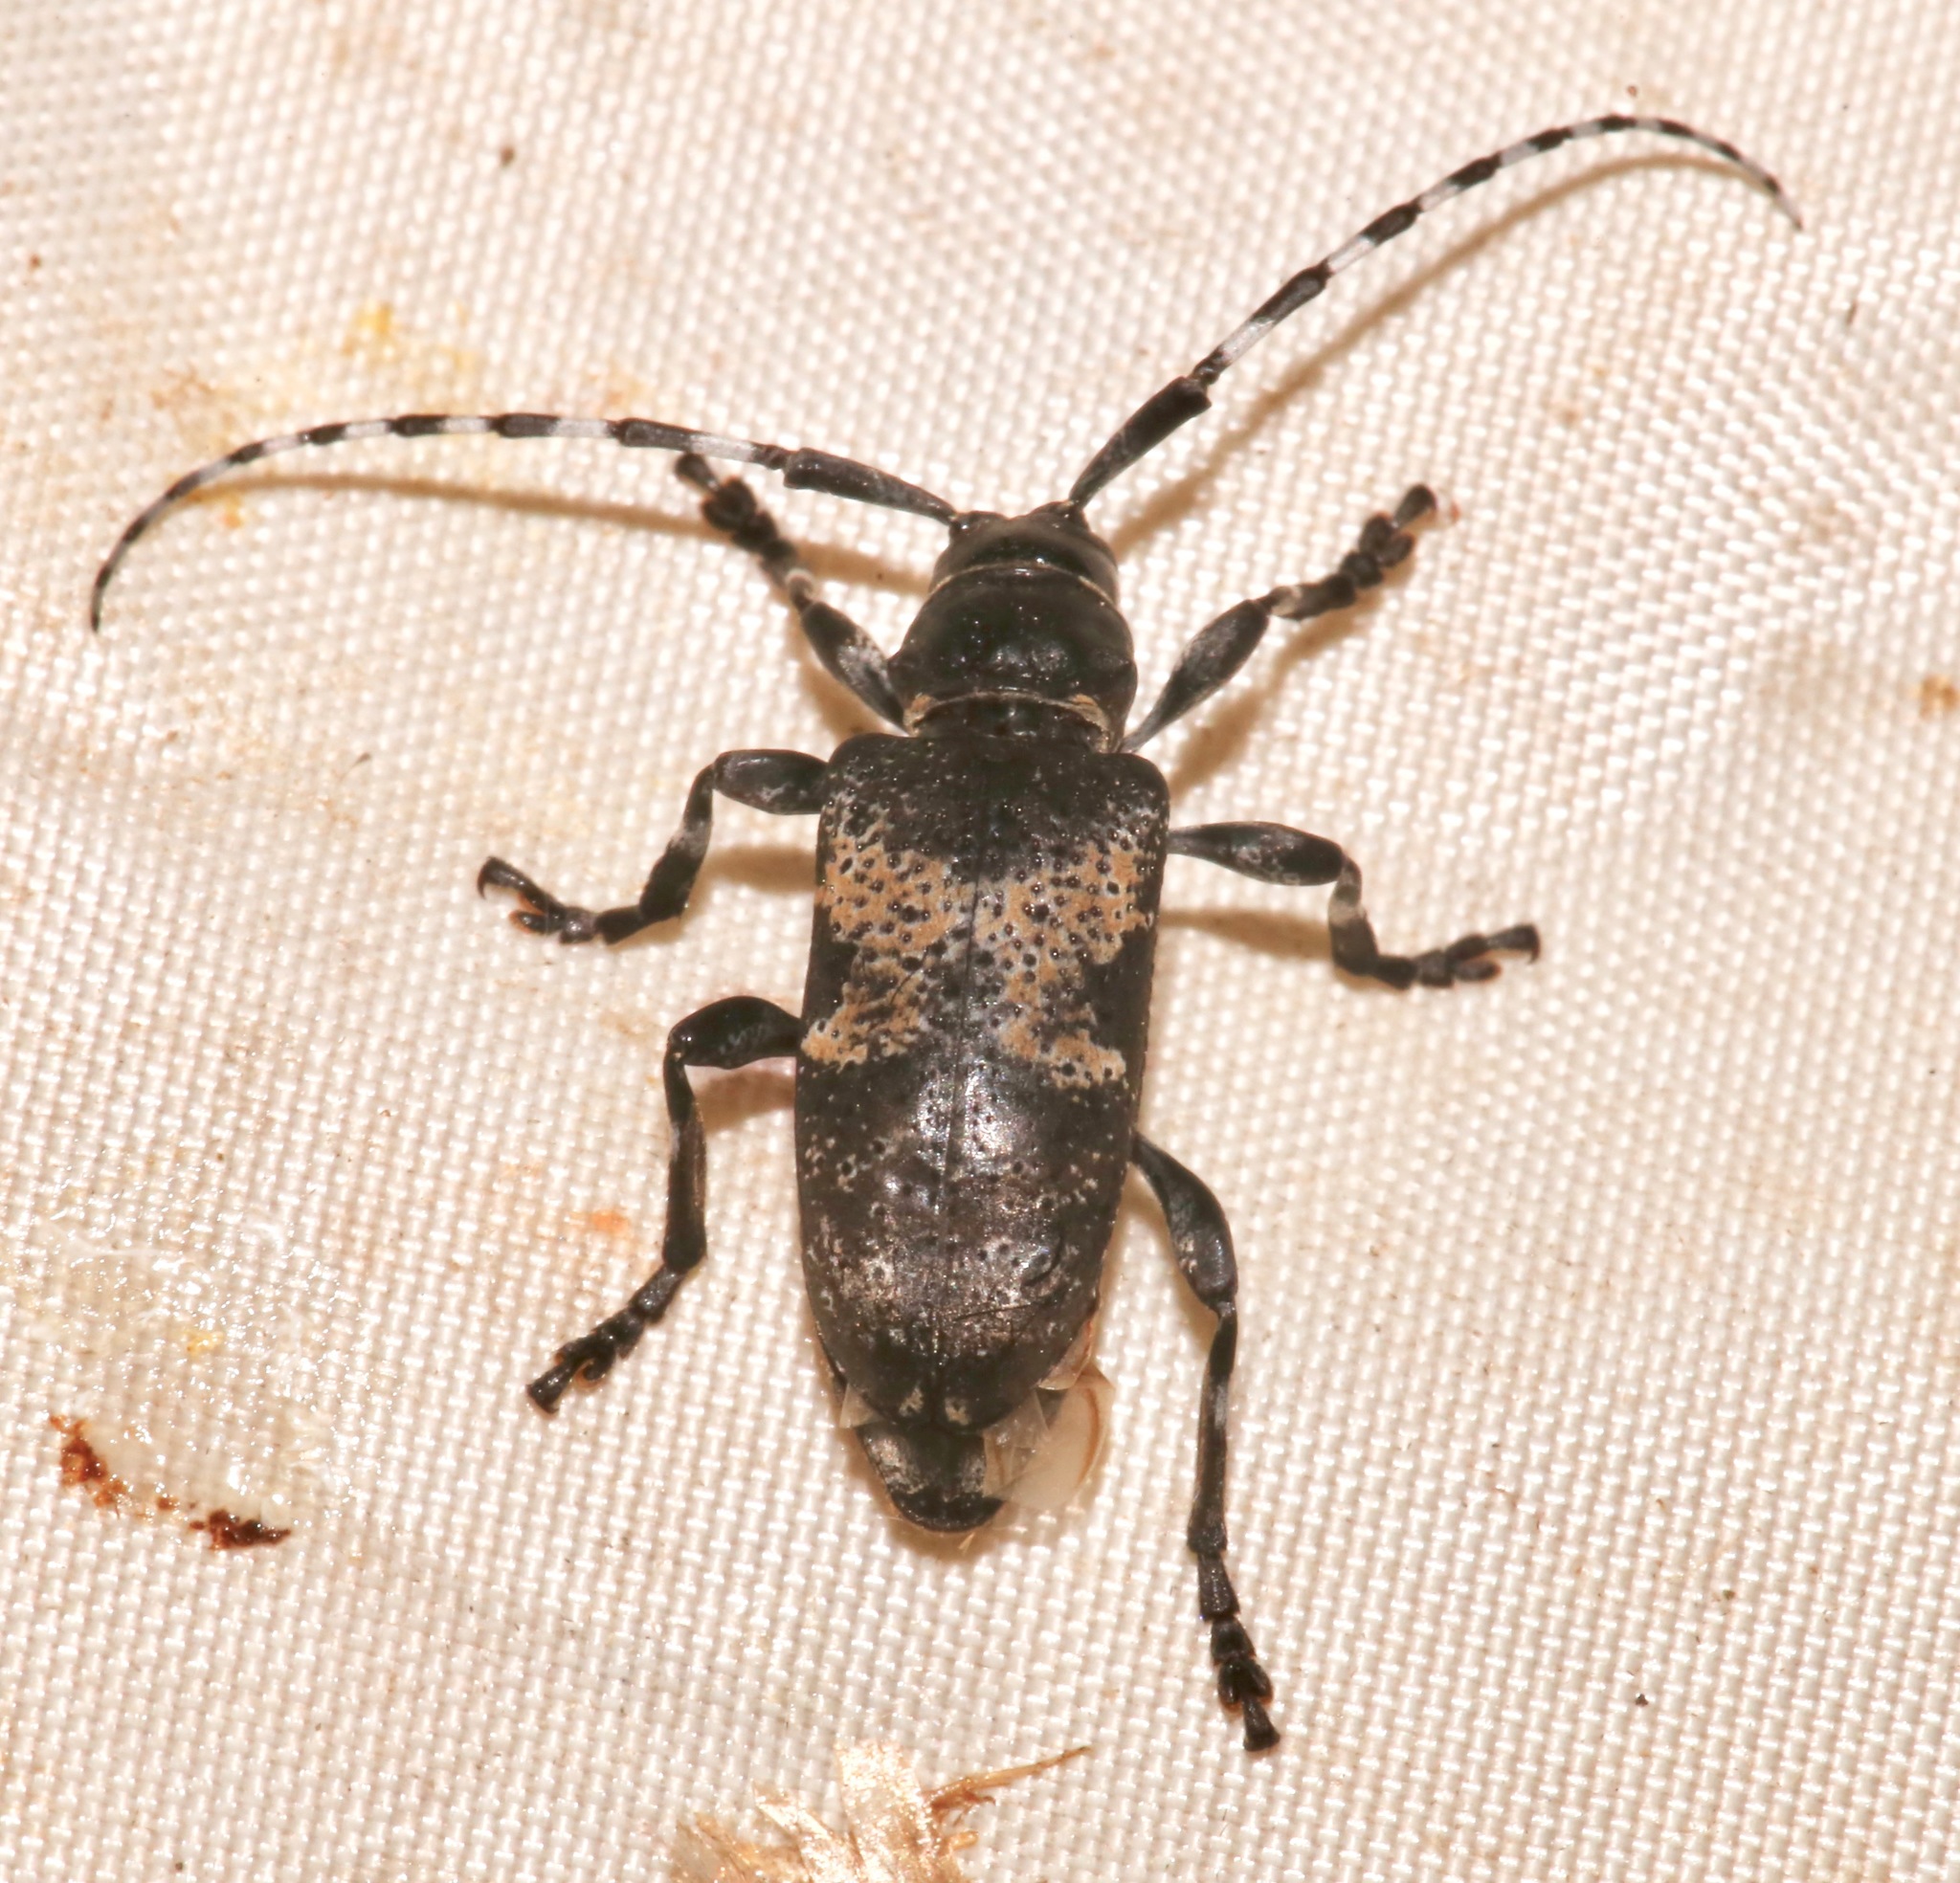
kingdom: Animalia
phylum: Arthropoda
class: Insecta
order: Coleoptera
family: Cerambycidae
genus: Coenopoeus
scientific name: Coenopoeus palmeri
